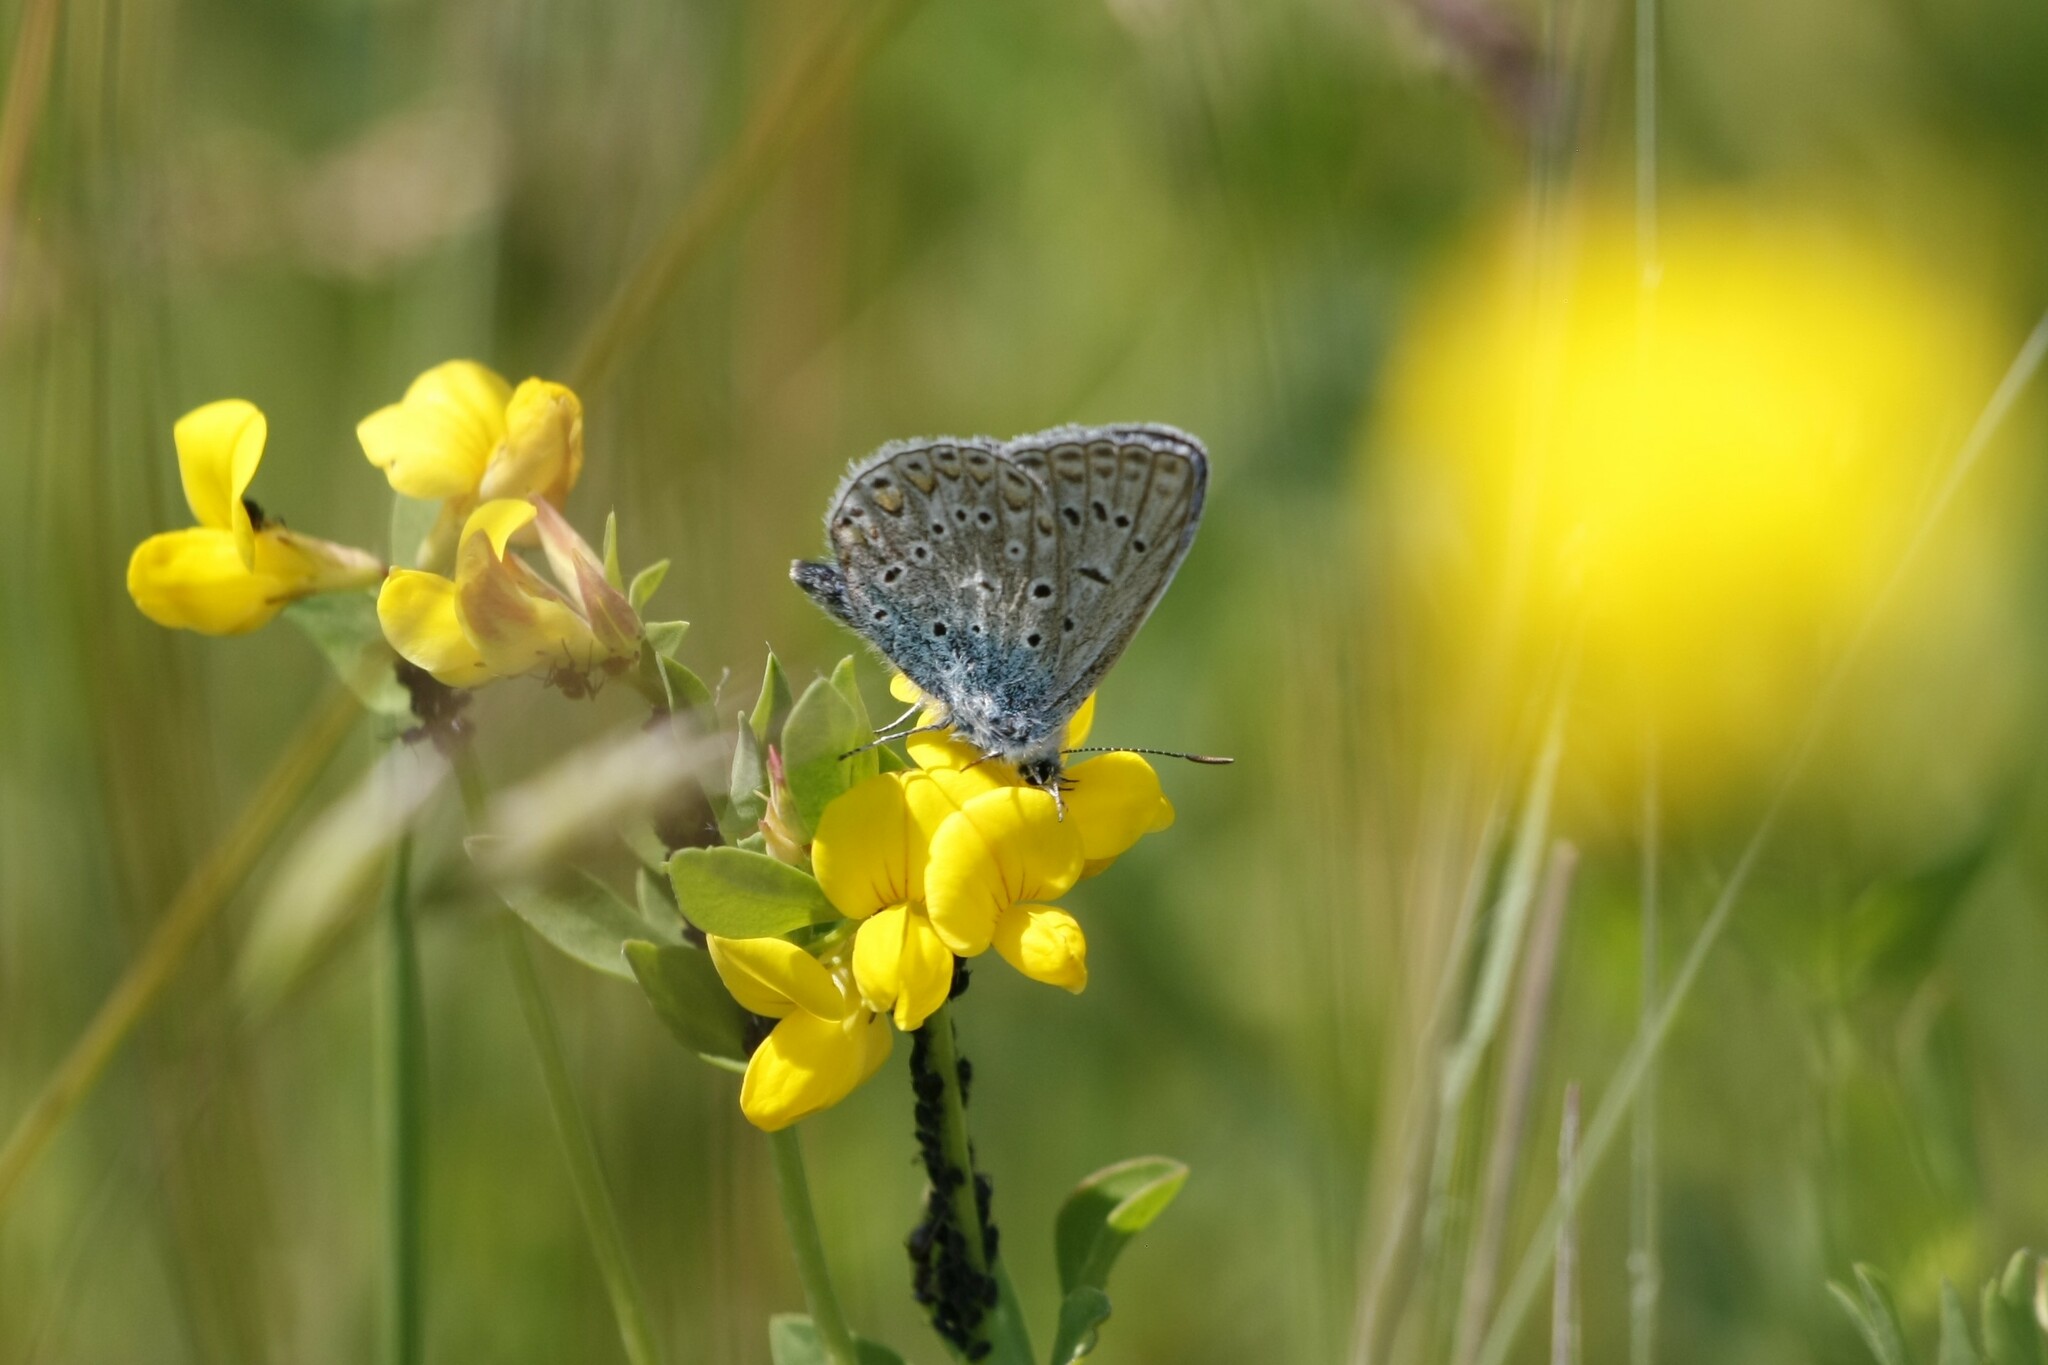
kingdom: Animalia
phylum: Arthropoda
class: Insecta
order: Lepidoptera
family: Lycaenidae
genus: Polyommatus
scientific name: Polyommatus icarus
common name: Common blue
